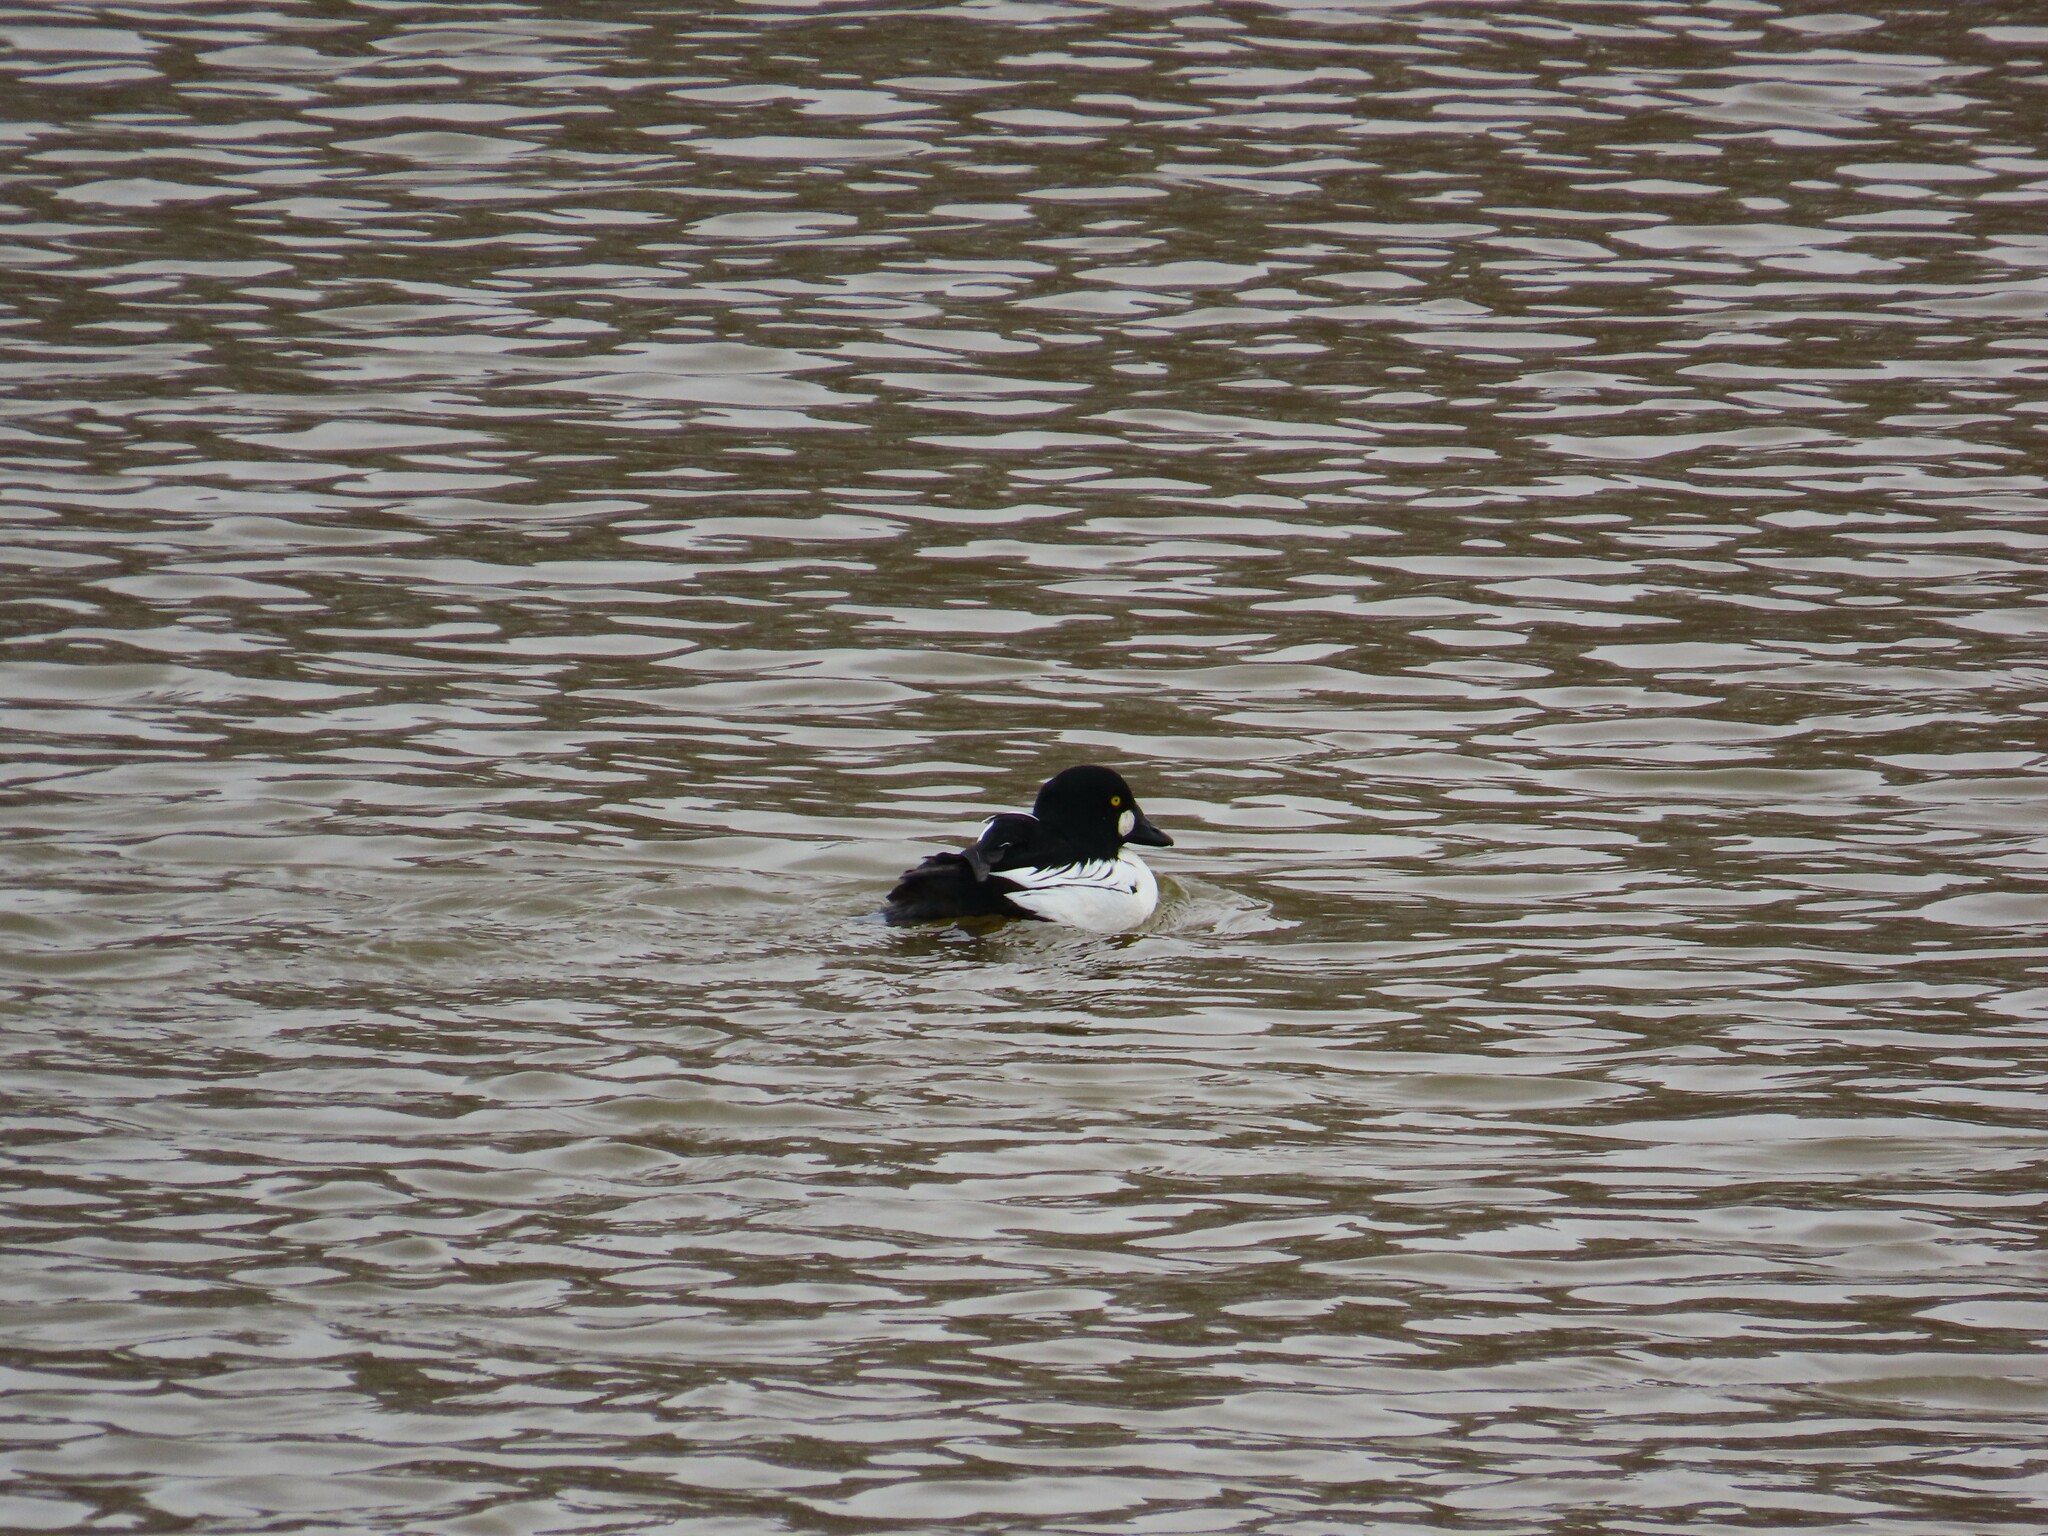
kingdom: Animalia
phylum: Chordata
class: Aves
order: Anseriformes
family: Anatidae
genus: Bucephala
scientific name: Bucephala clangula
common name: Common goldeneye
